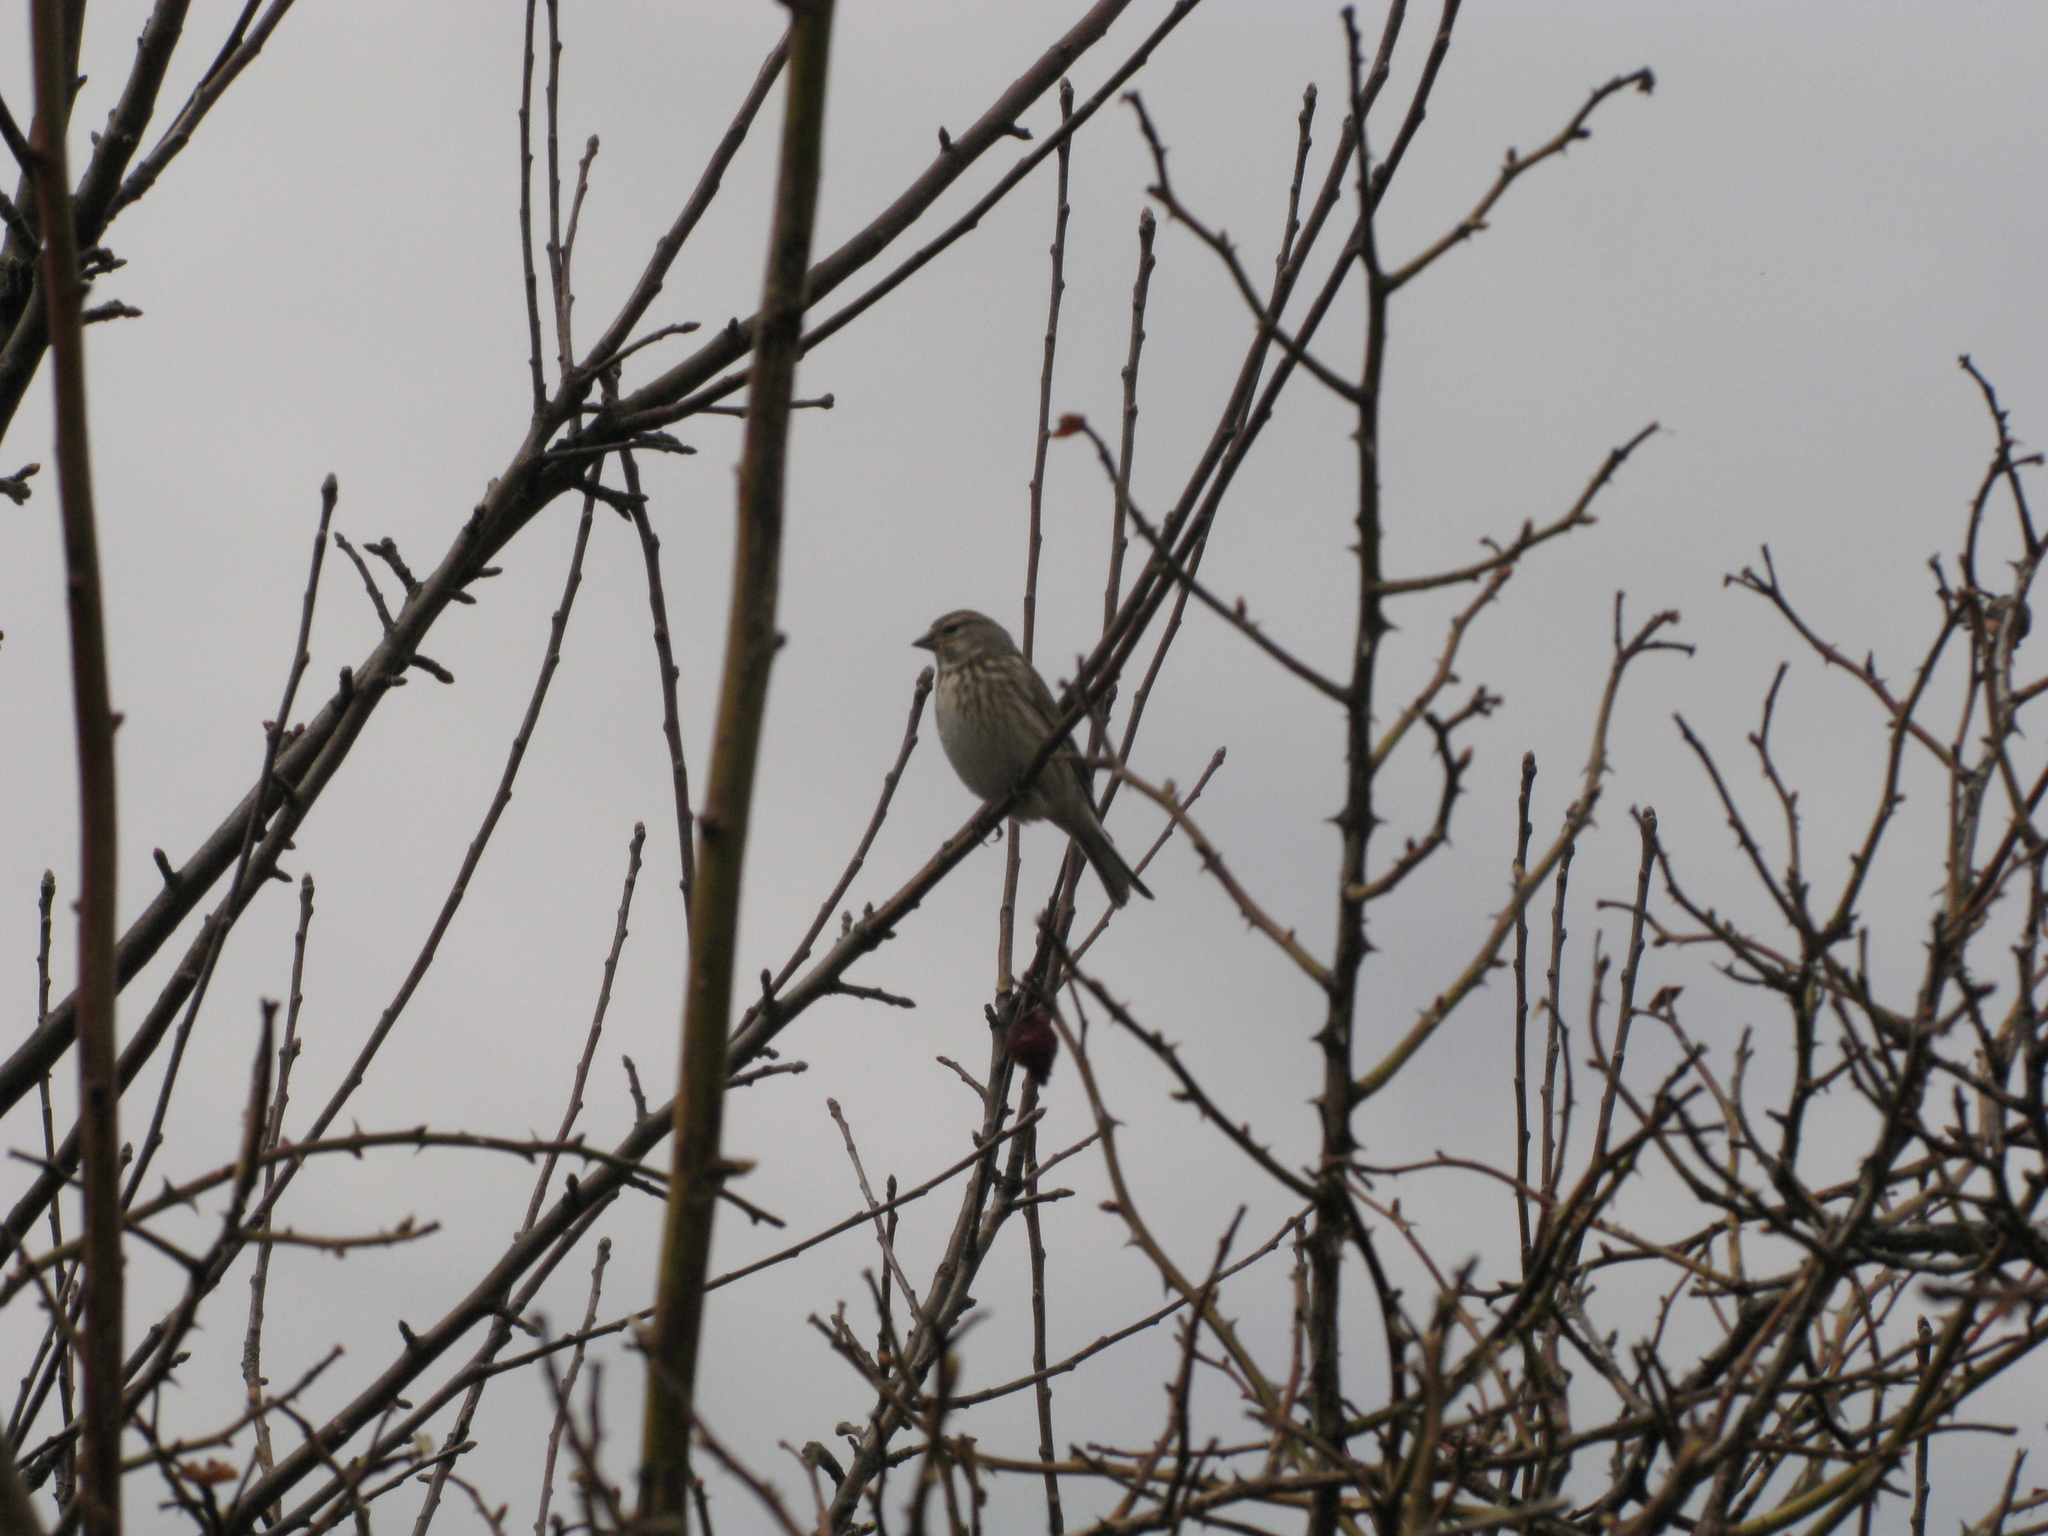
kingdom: Animalia
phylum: Chordata
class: Aves
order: Passeriformes
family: Fringillidae
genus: Linaria
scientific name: Linaria cannabina
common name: Common linnet
